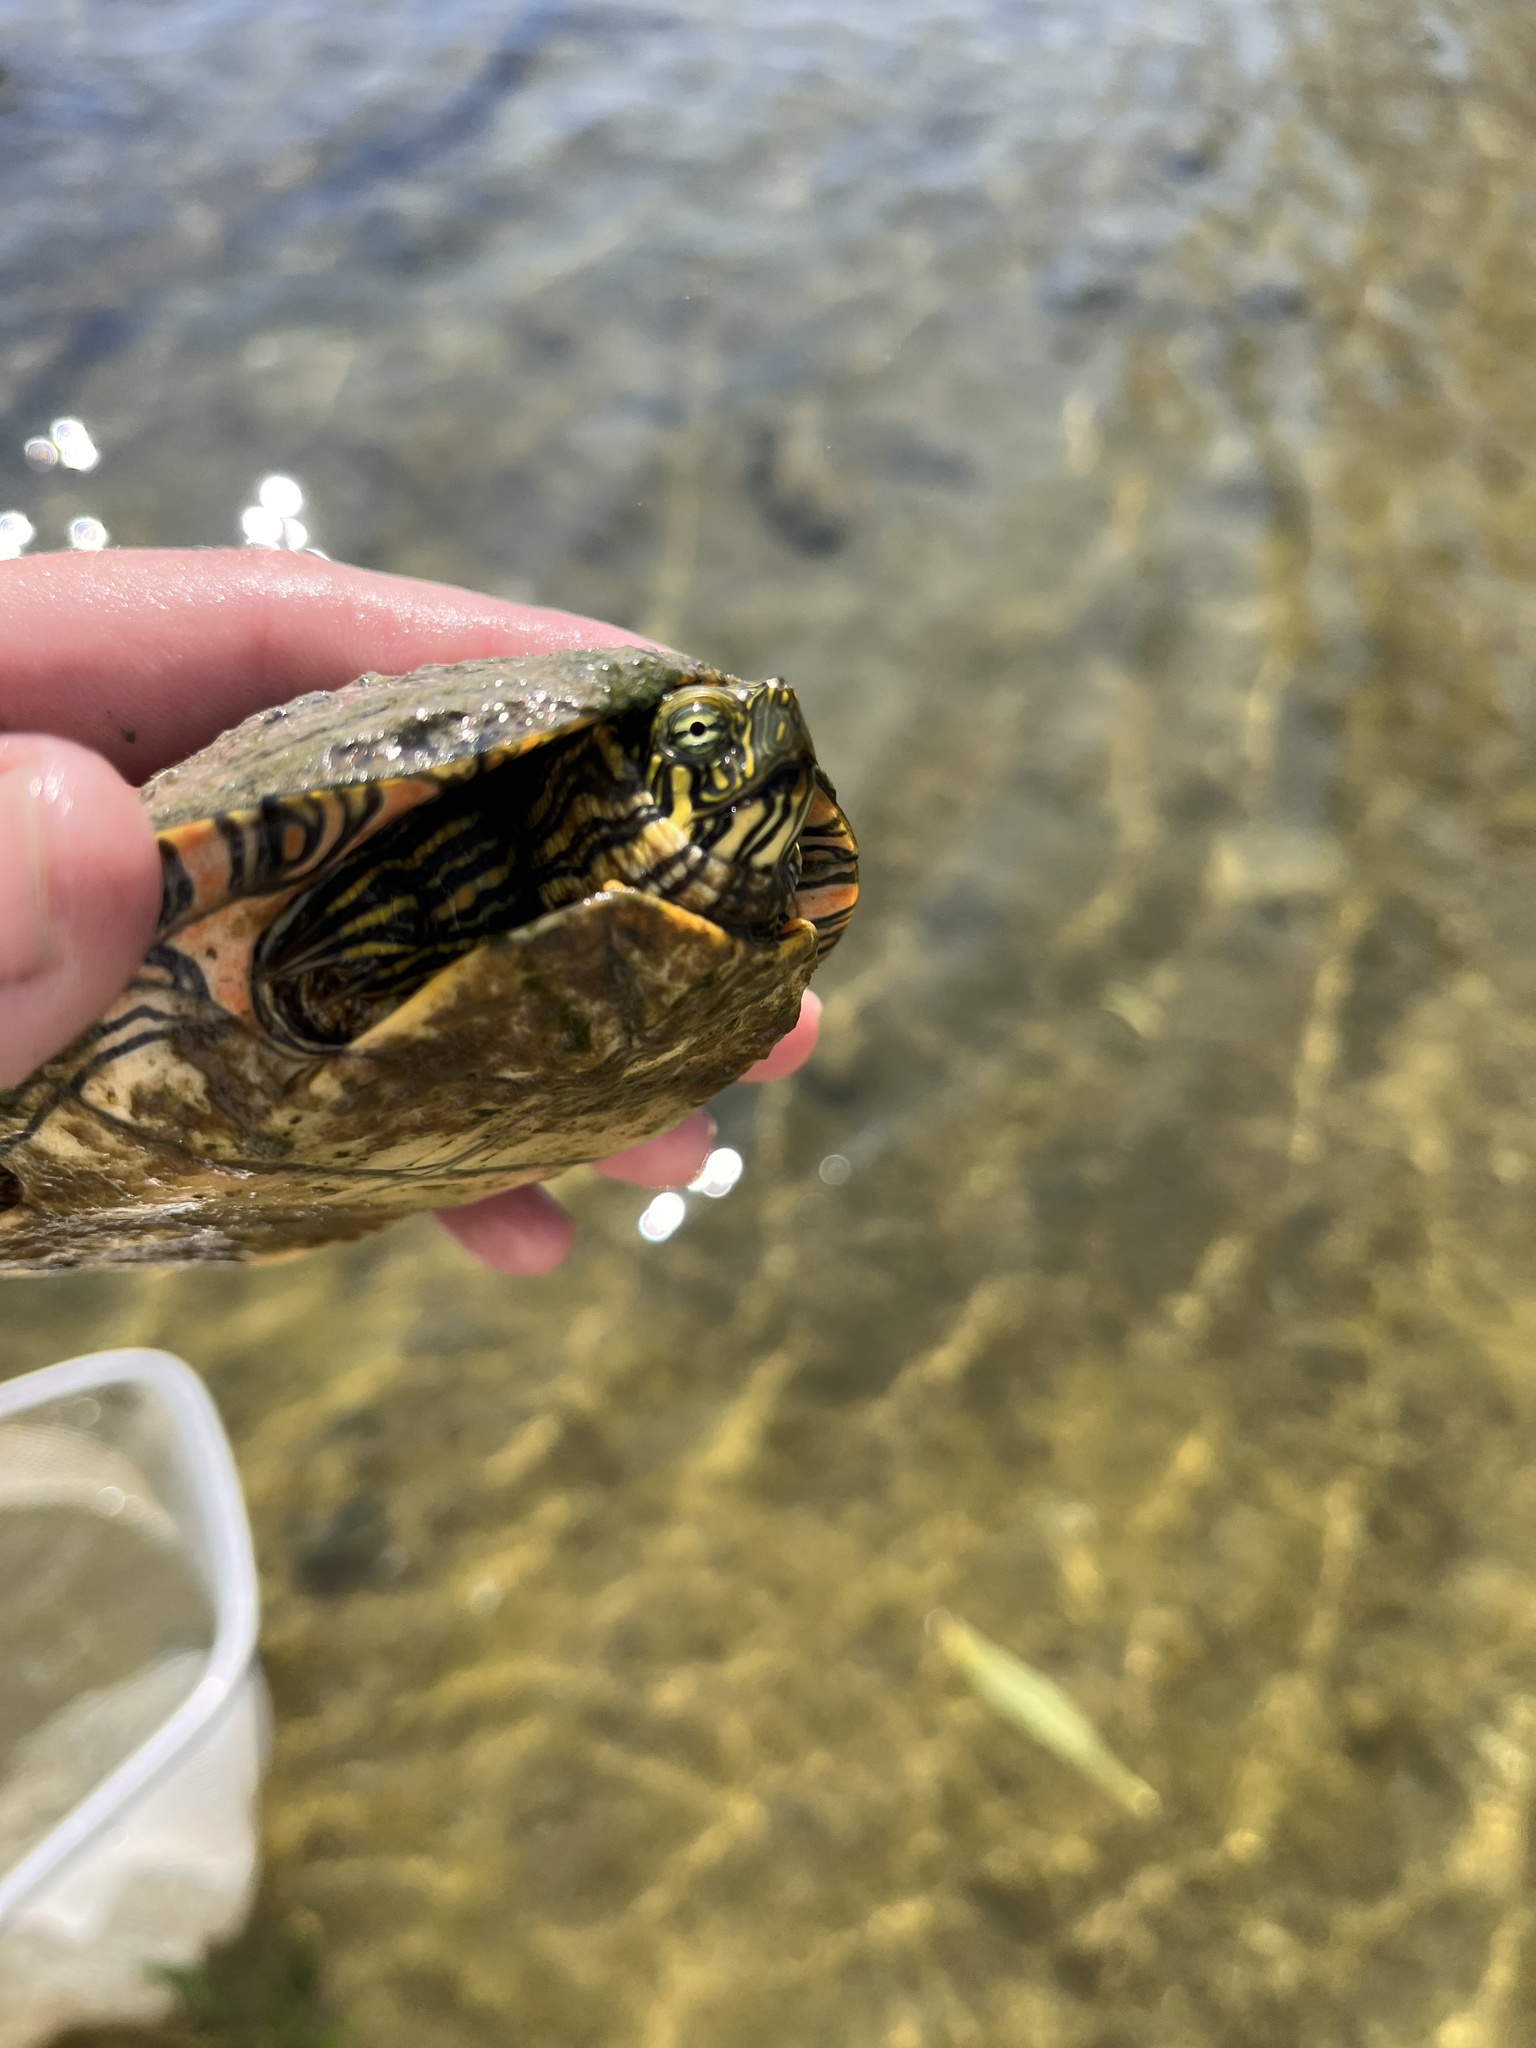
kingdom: Animalia
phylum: Chordata
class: Testudines
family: Emydidae
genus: Pseudemys
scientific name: Pseudemys texana
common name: Texas river cooter
